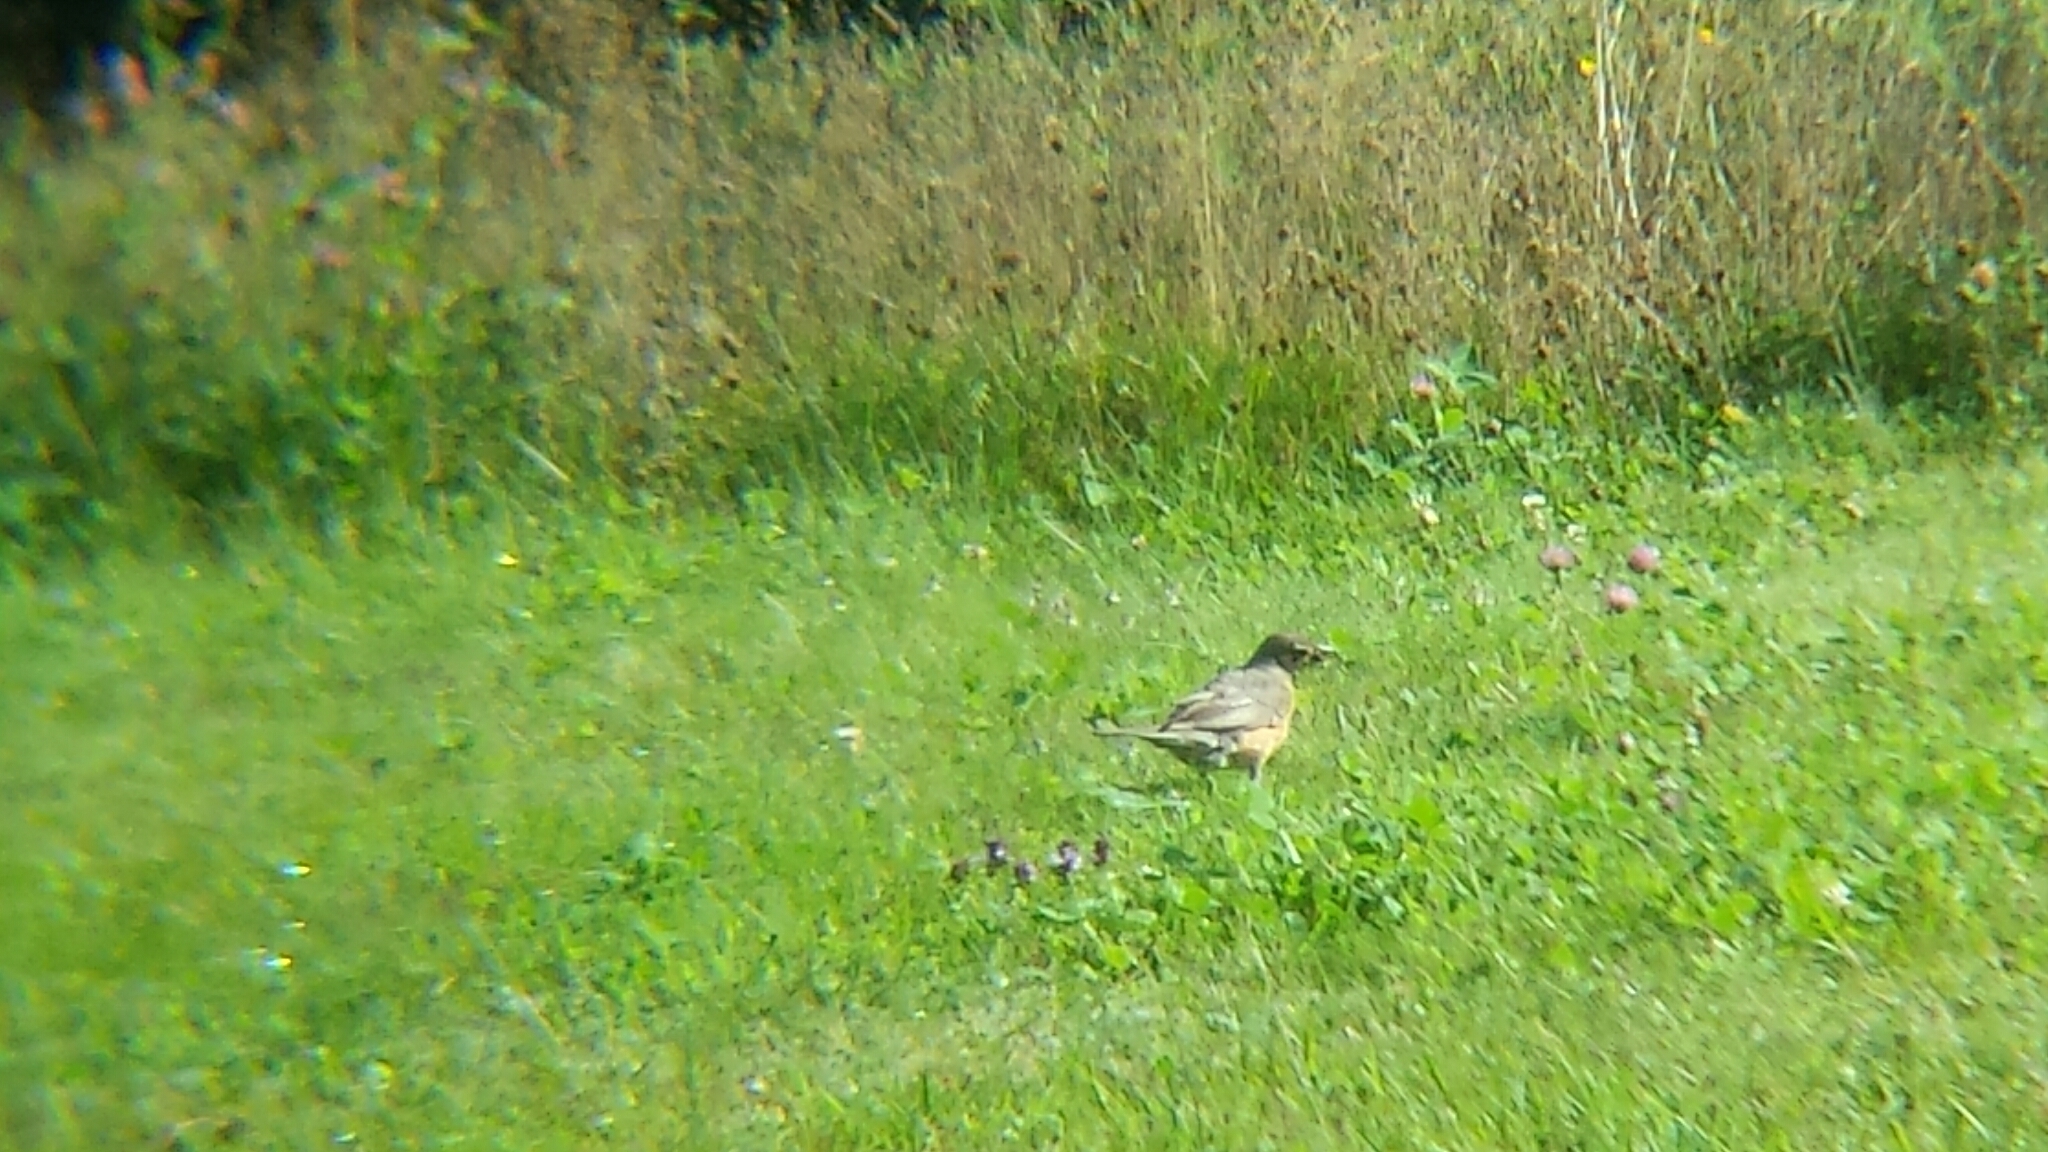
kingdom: Animalia
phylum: Chordata
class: Aves
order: Passeriformes
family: Turdidae
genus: Turdus
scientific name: Turdus migratorius
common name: American robin
